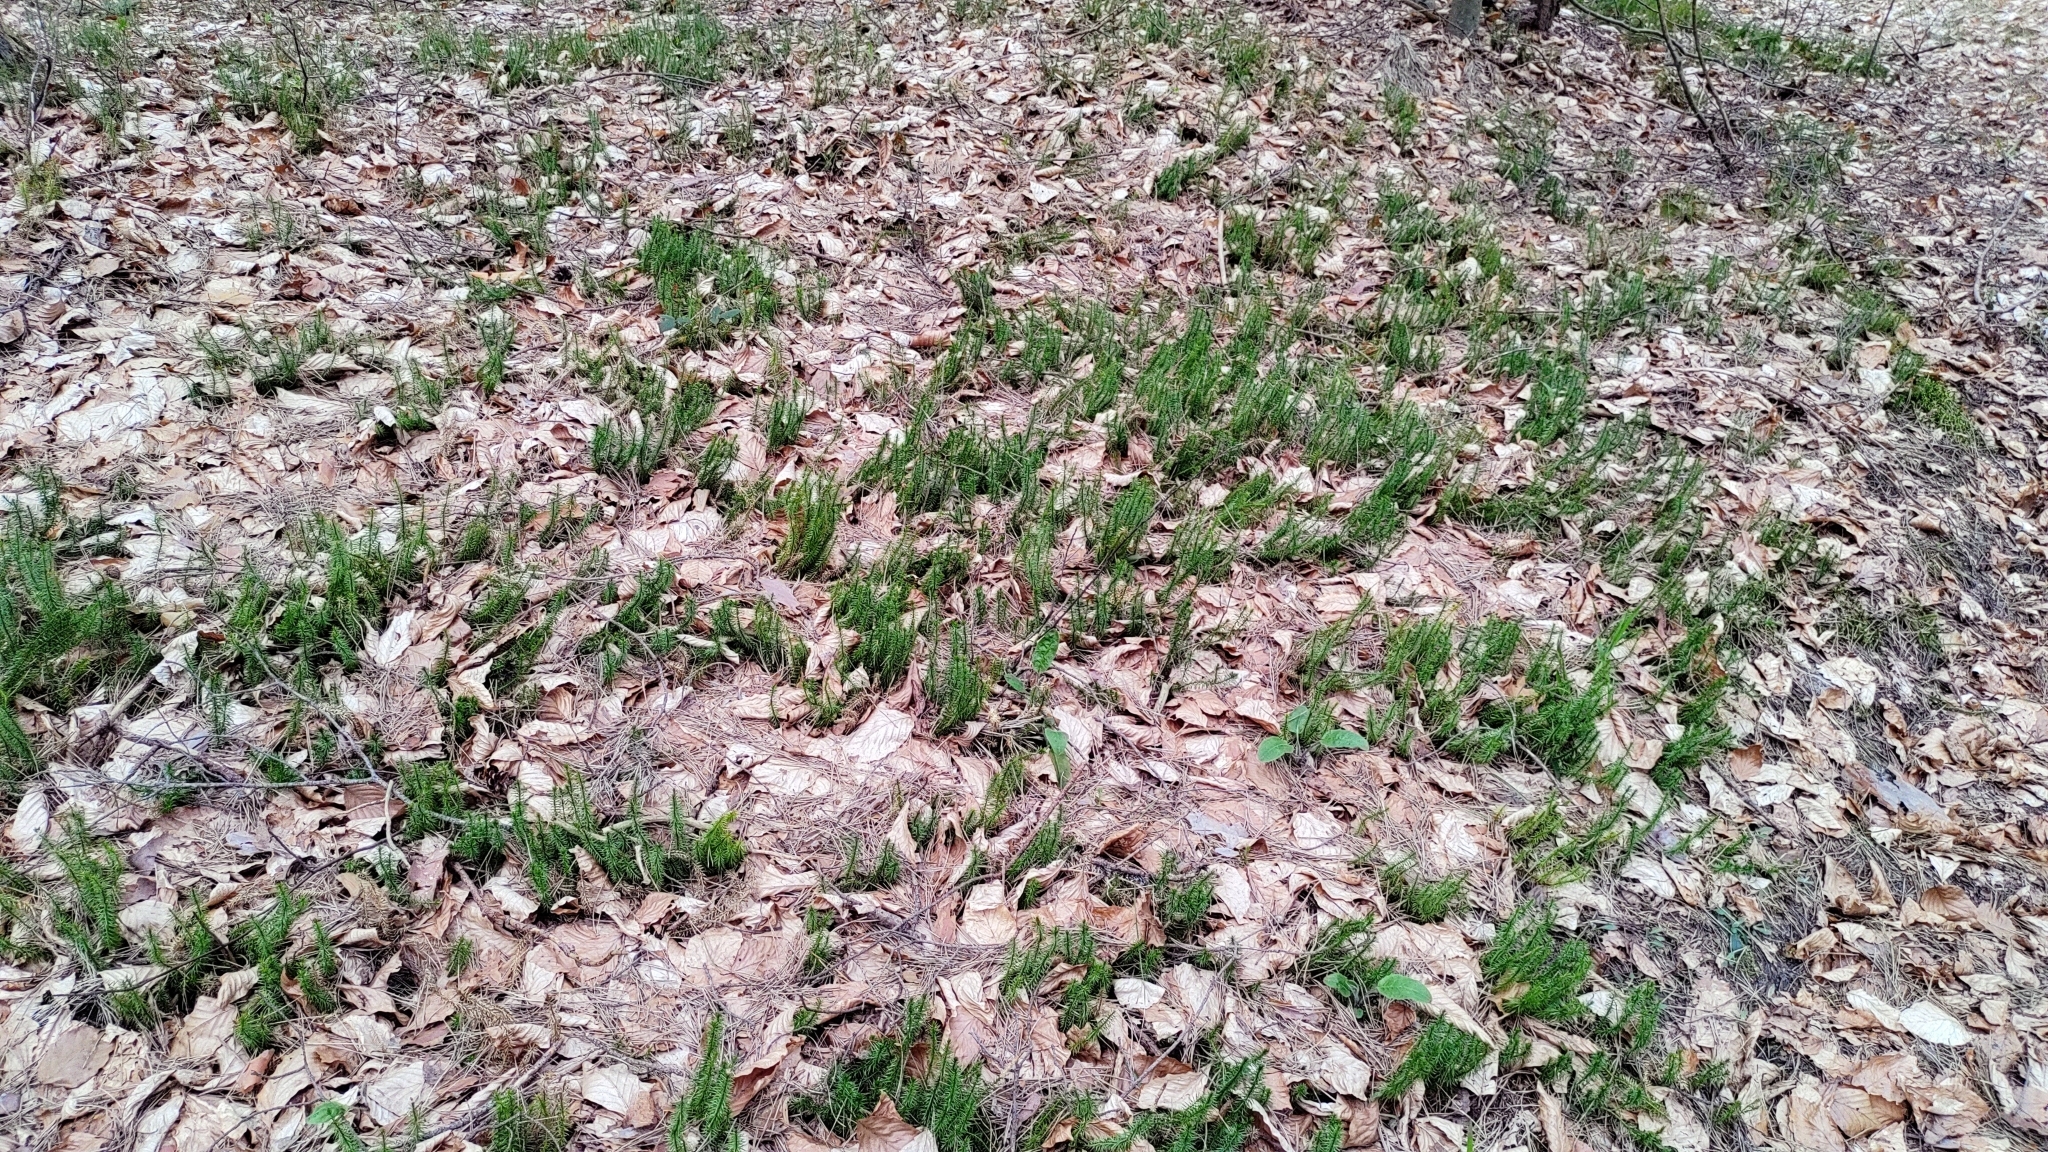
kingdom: Plantae
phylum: Tracheophyta
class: Lycopodiopsida
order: Lycopodiales
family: Lycopodiaceae
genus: Spinulum
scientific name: Spinulum annotinum
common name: Interrupted club-moss
